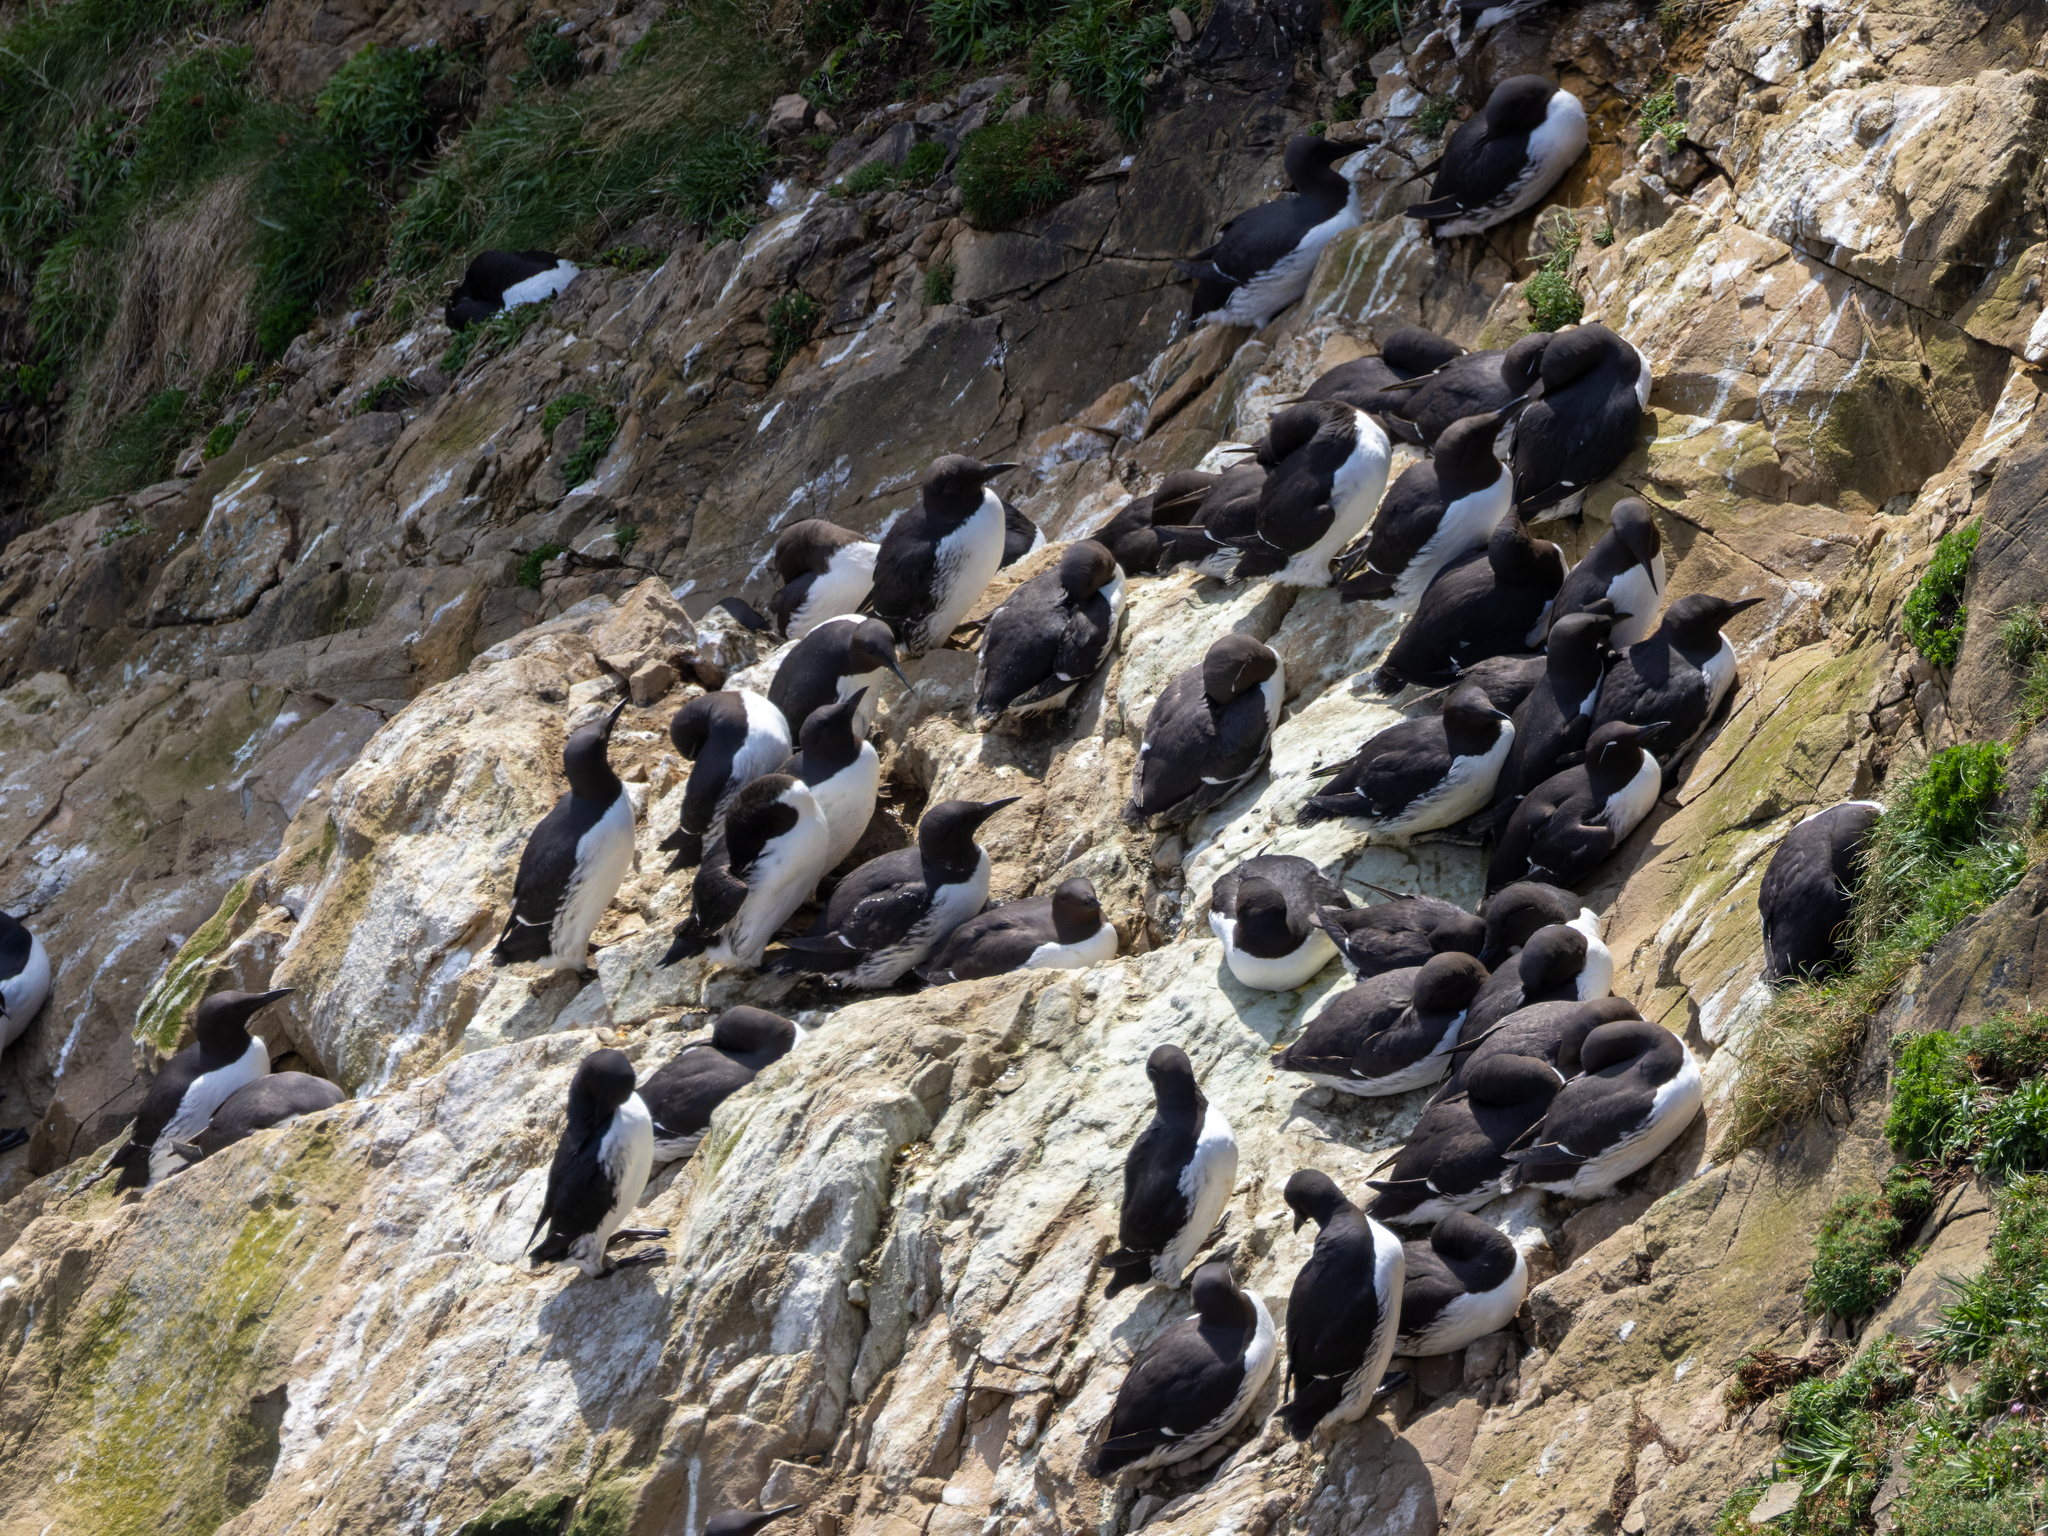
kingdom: Animalia
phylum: Chordata
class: Aves
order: Charadriiformes
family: Alcidae
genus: Uria
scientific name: Uria aalge
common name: Common murre
